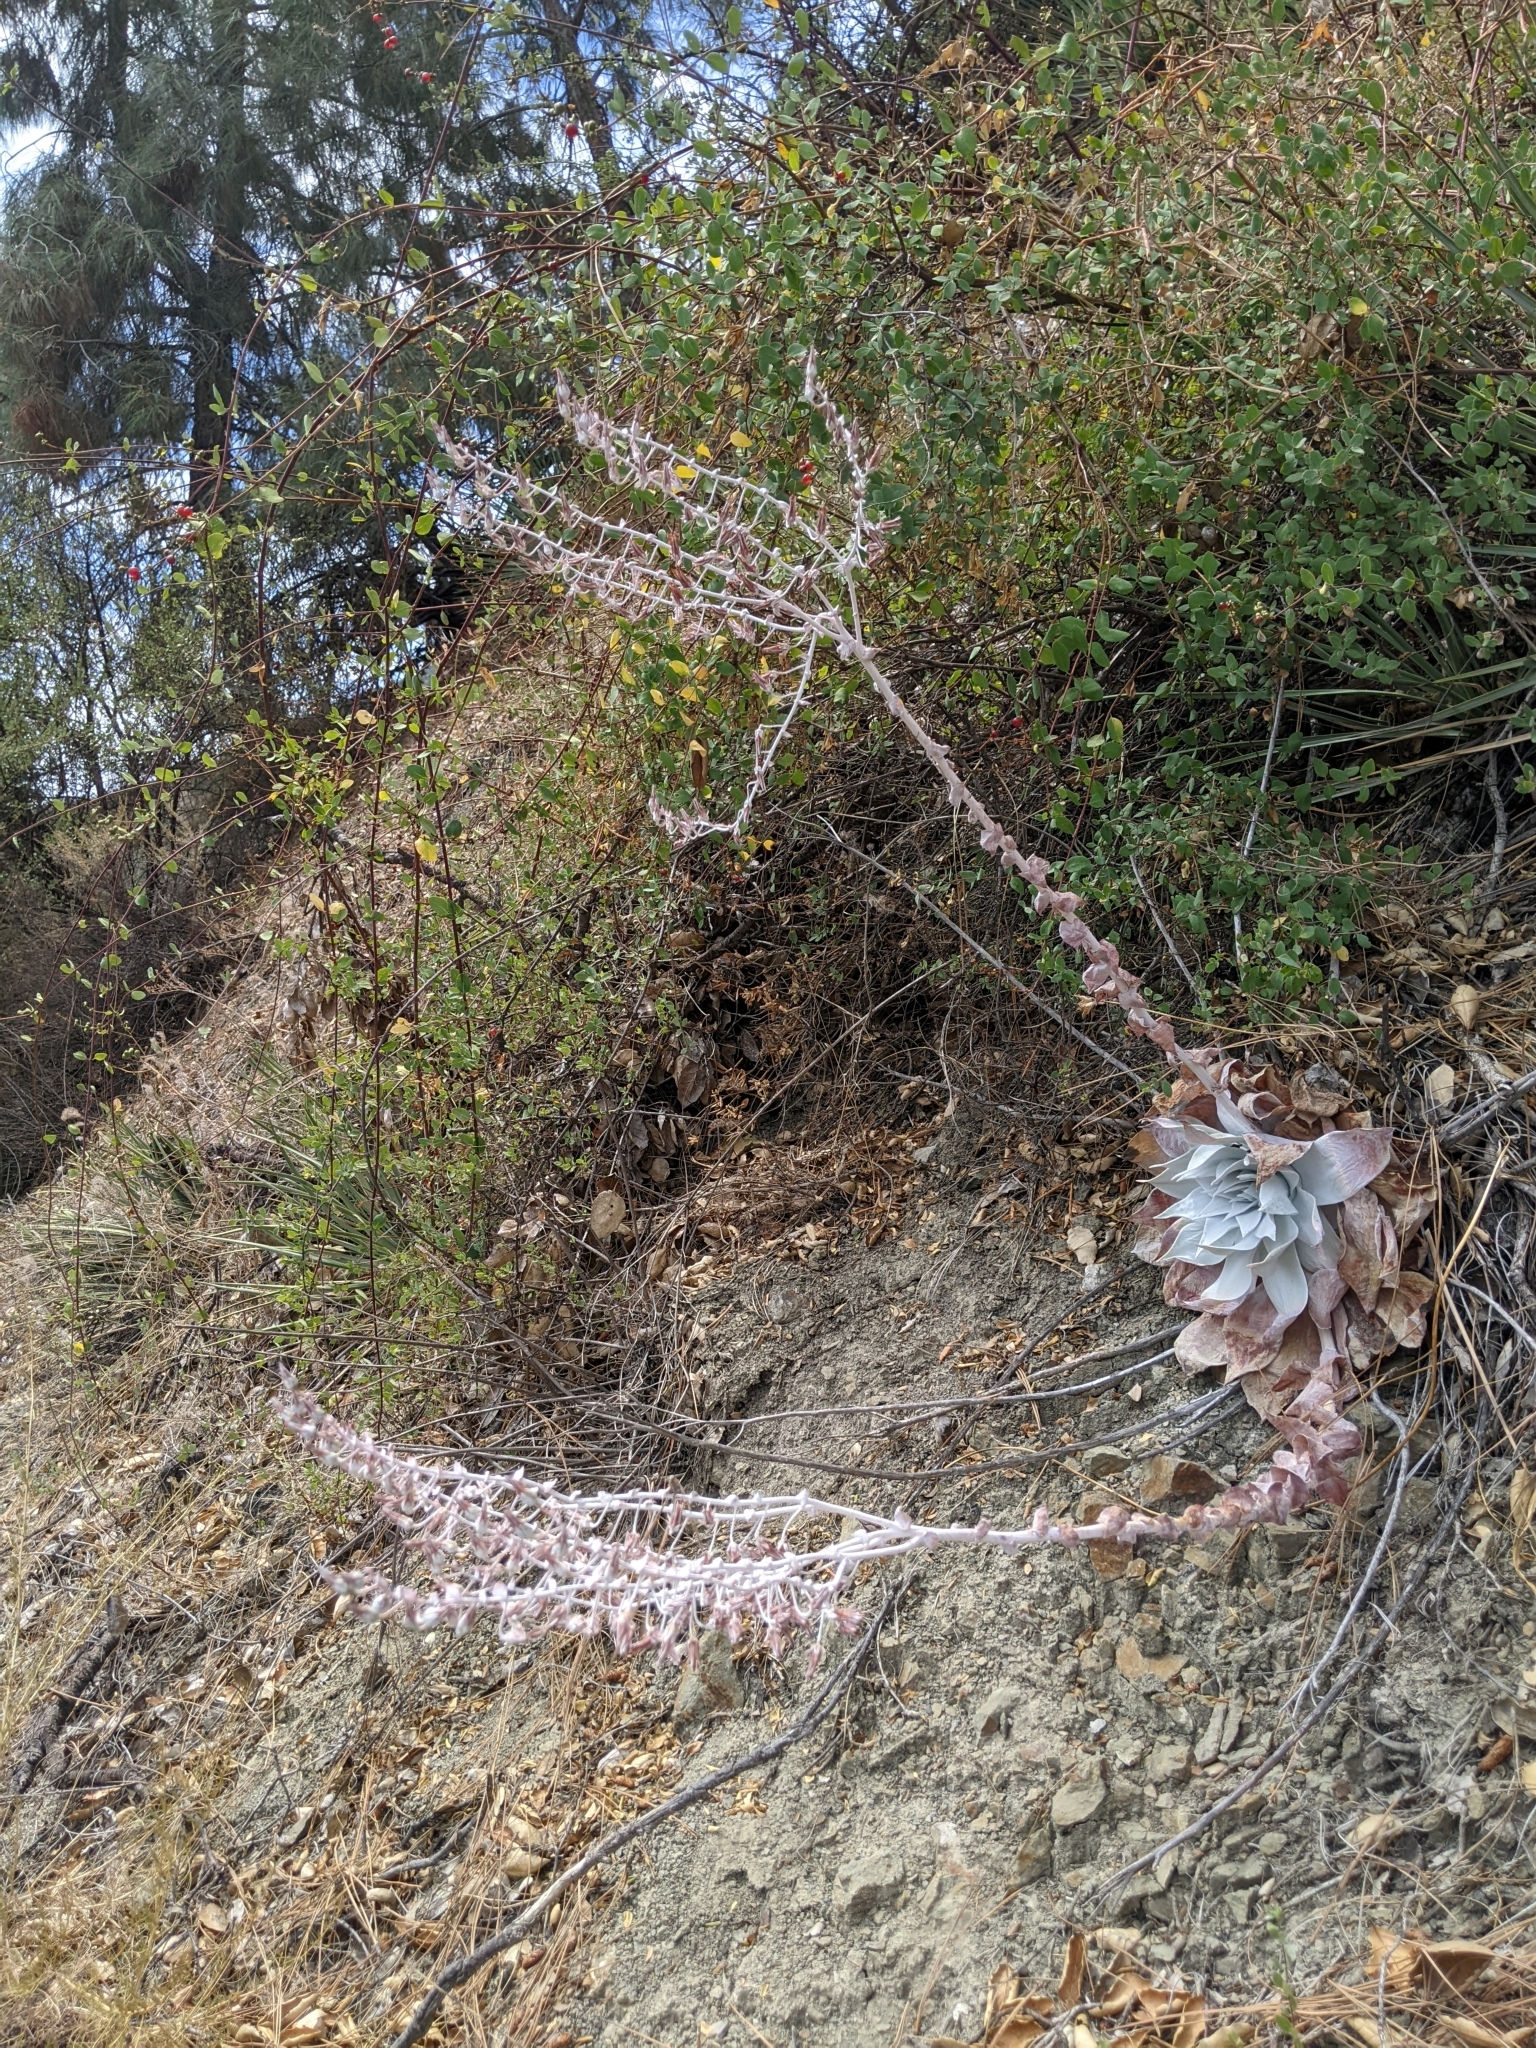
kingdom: Plantae
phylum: Tracheophyta
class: Magnoliopsida
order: Saxifragales
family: Crassulaceae
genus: Dudleya
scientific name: Dudleya pulverulenta
